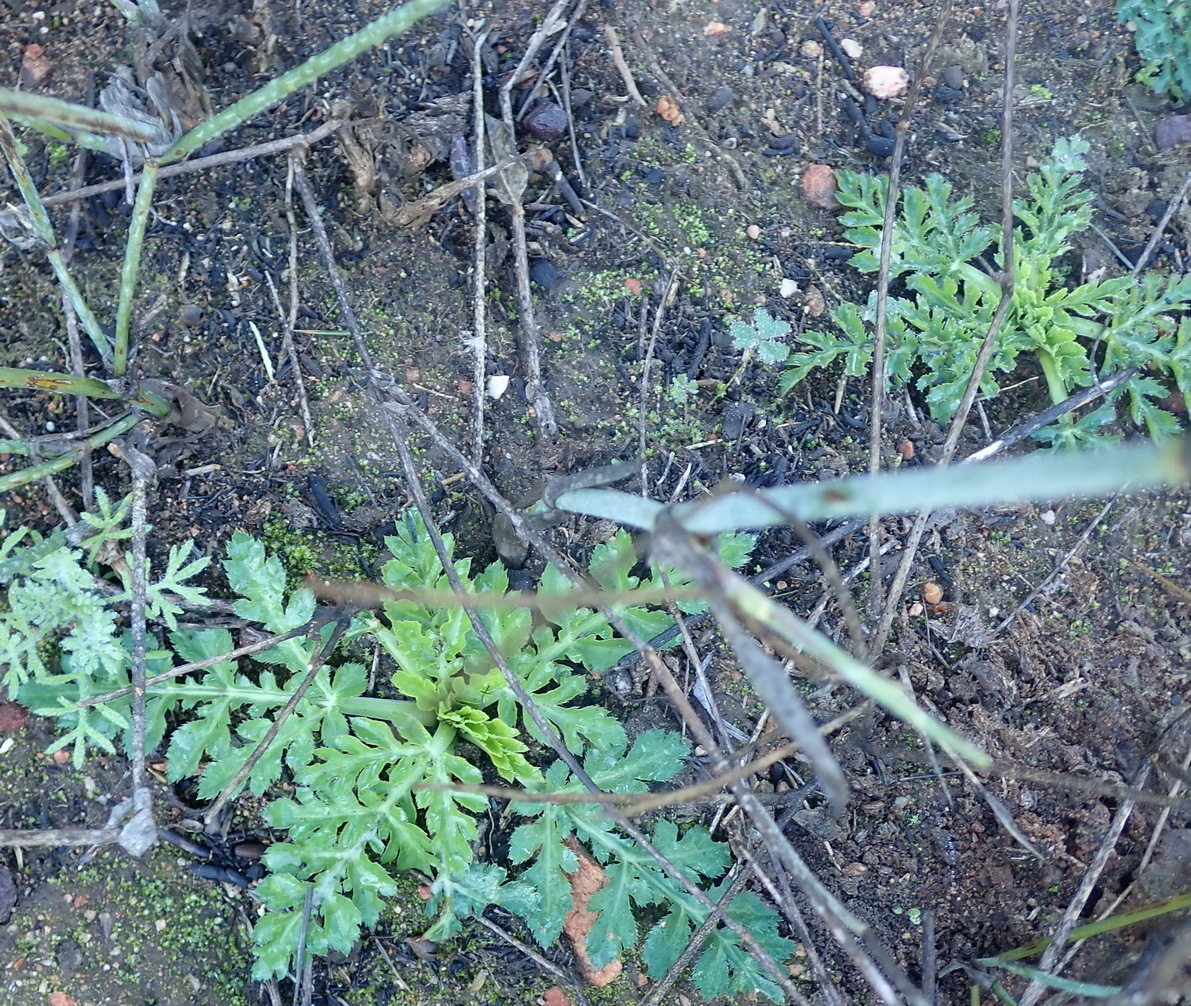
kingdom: Plantae
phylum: Tracheophyta
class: Magnoliopsida
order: Apiales
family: Apiaceae
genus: Lichtensteinia
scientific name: Lichtensteinia interrupta
